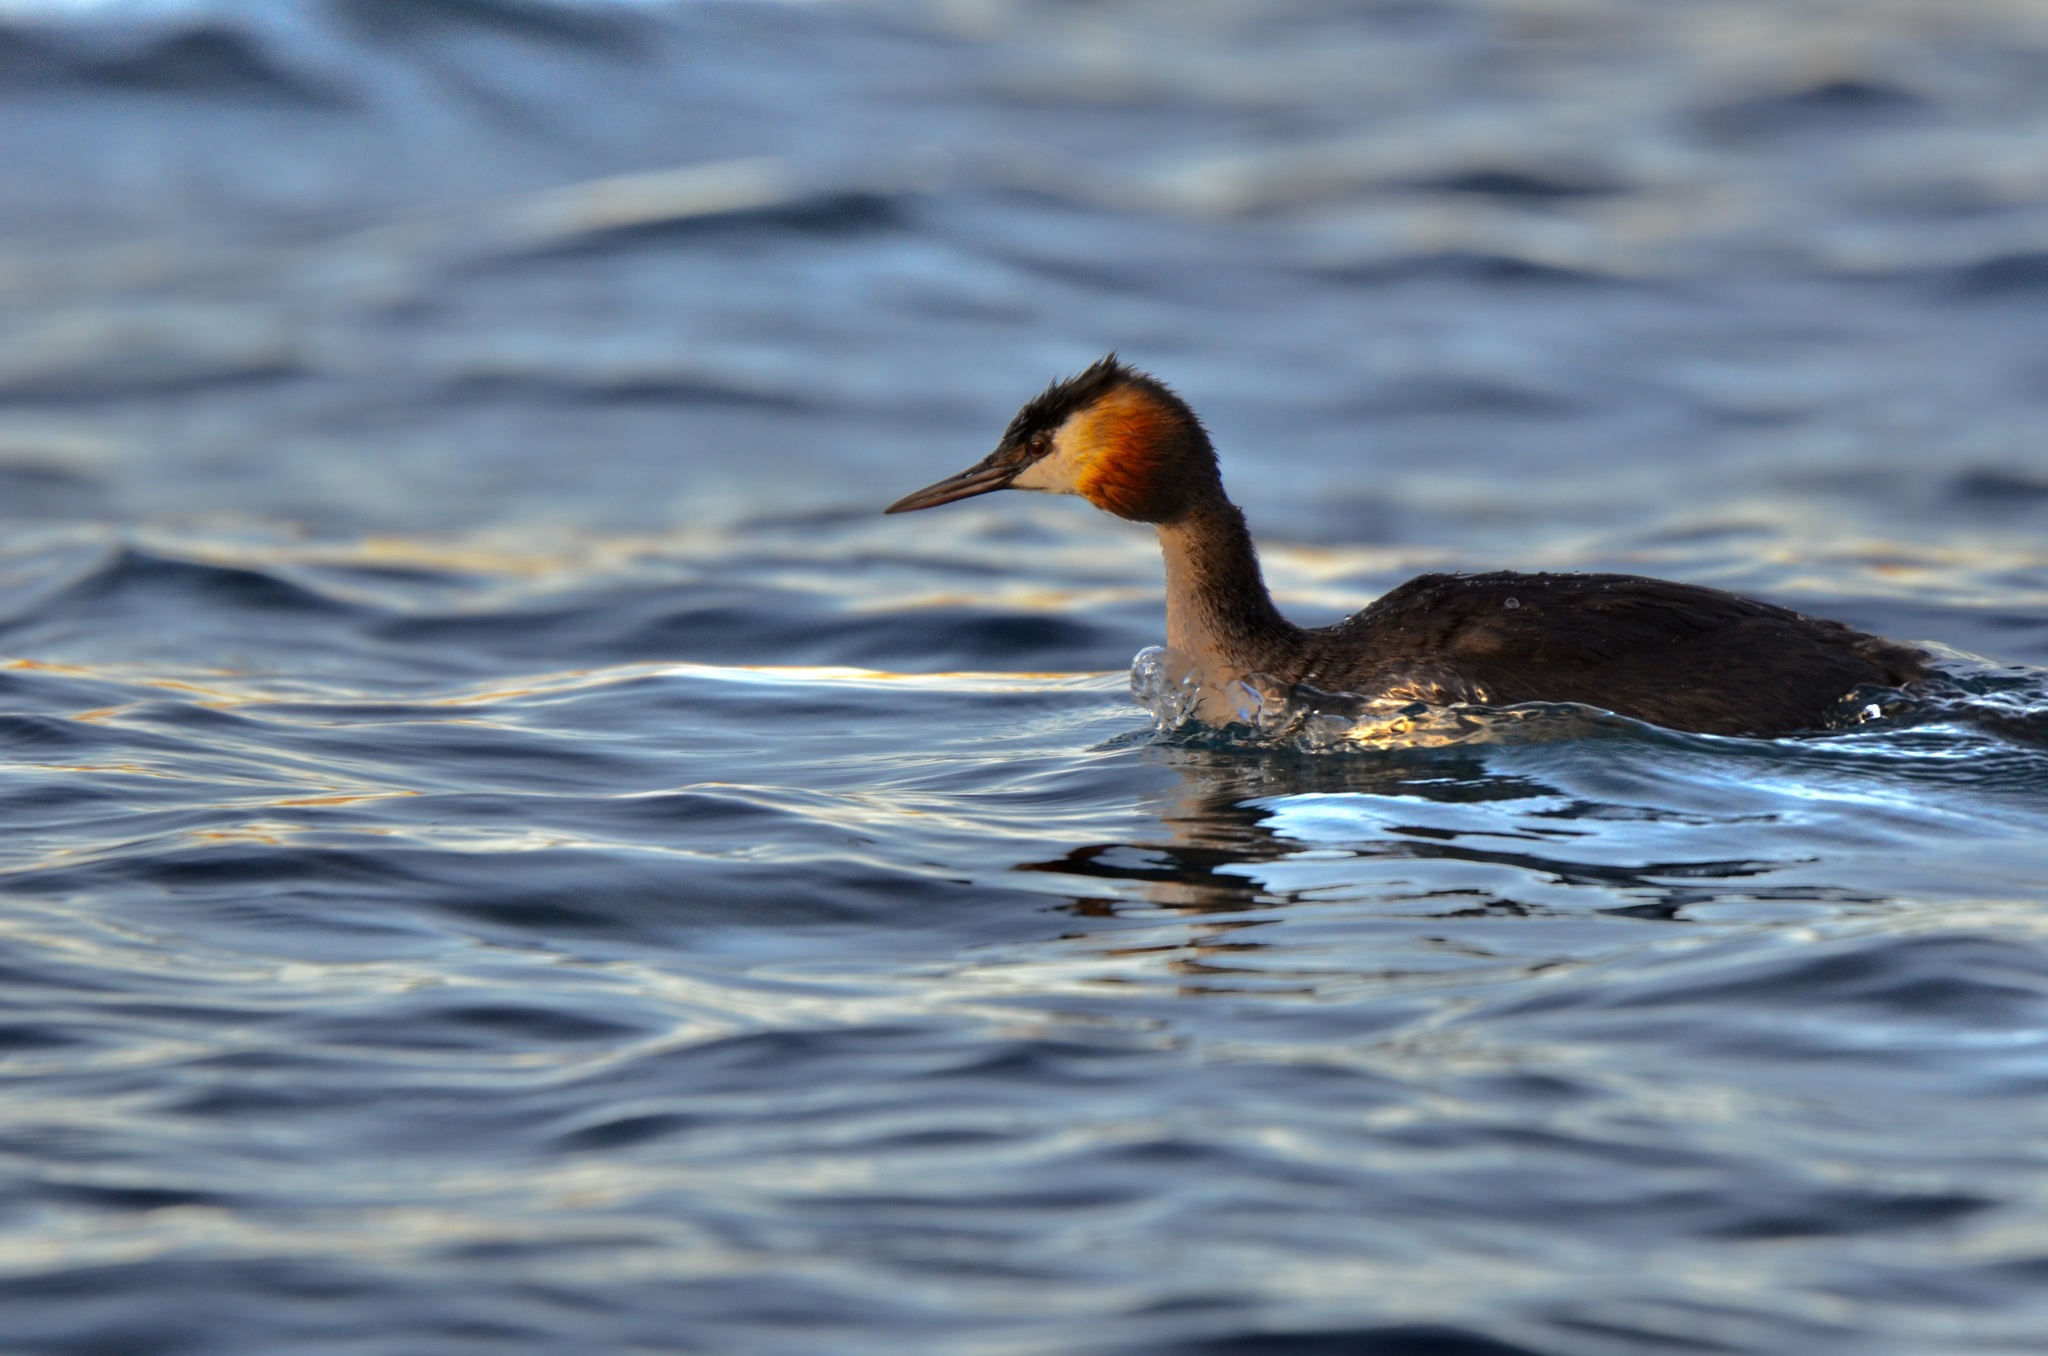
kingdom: Animalia
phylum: Chordata
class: Aves
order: Podicipediformes
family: Podicipedidae
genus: Podiceps
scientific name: Podiceps cristatus
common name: Great crested grebe
